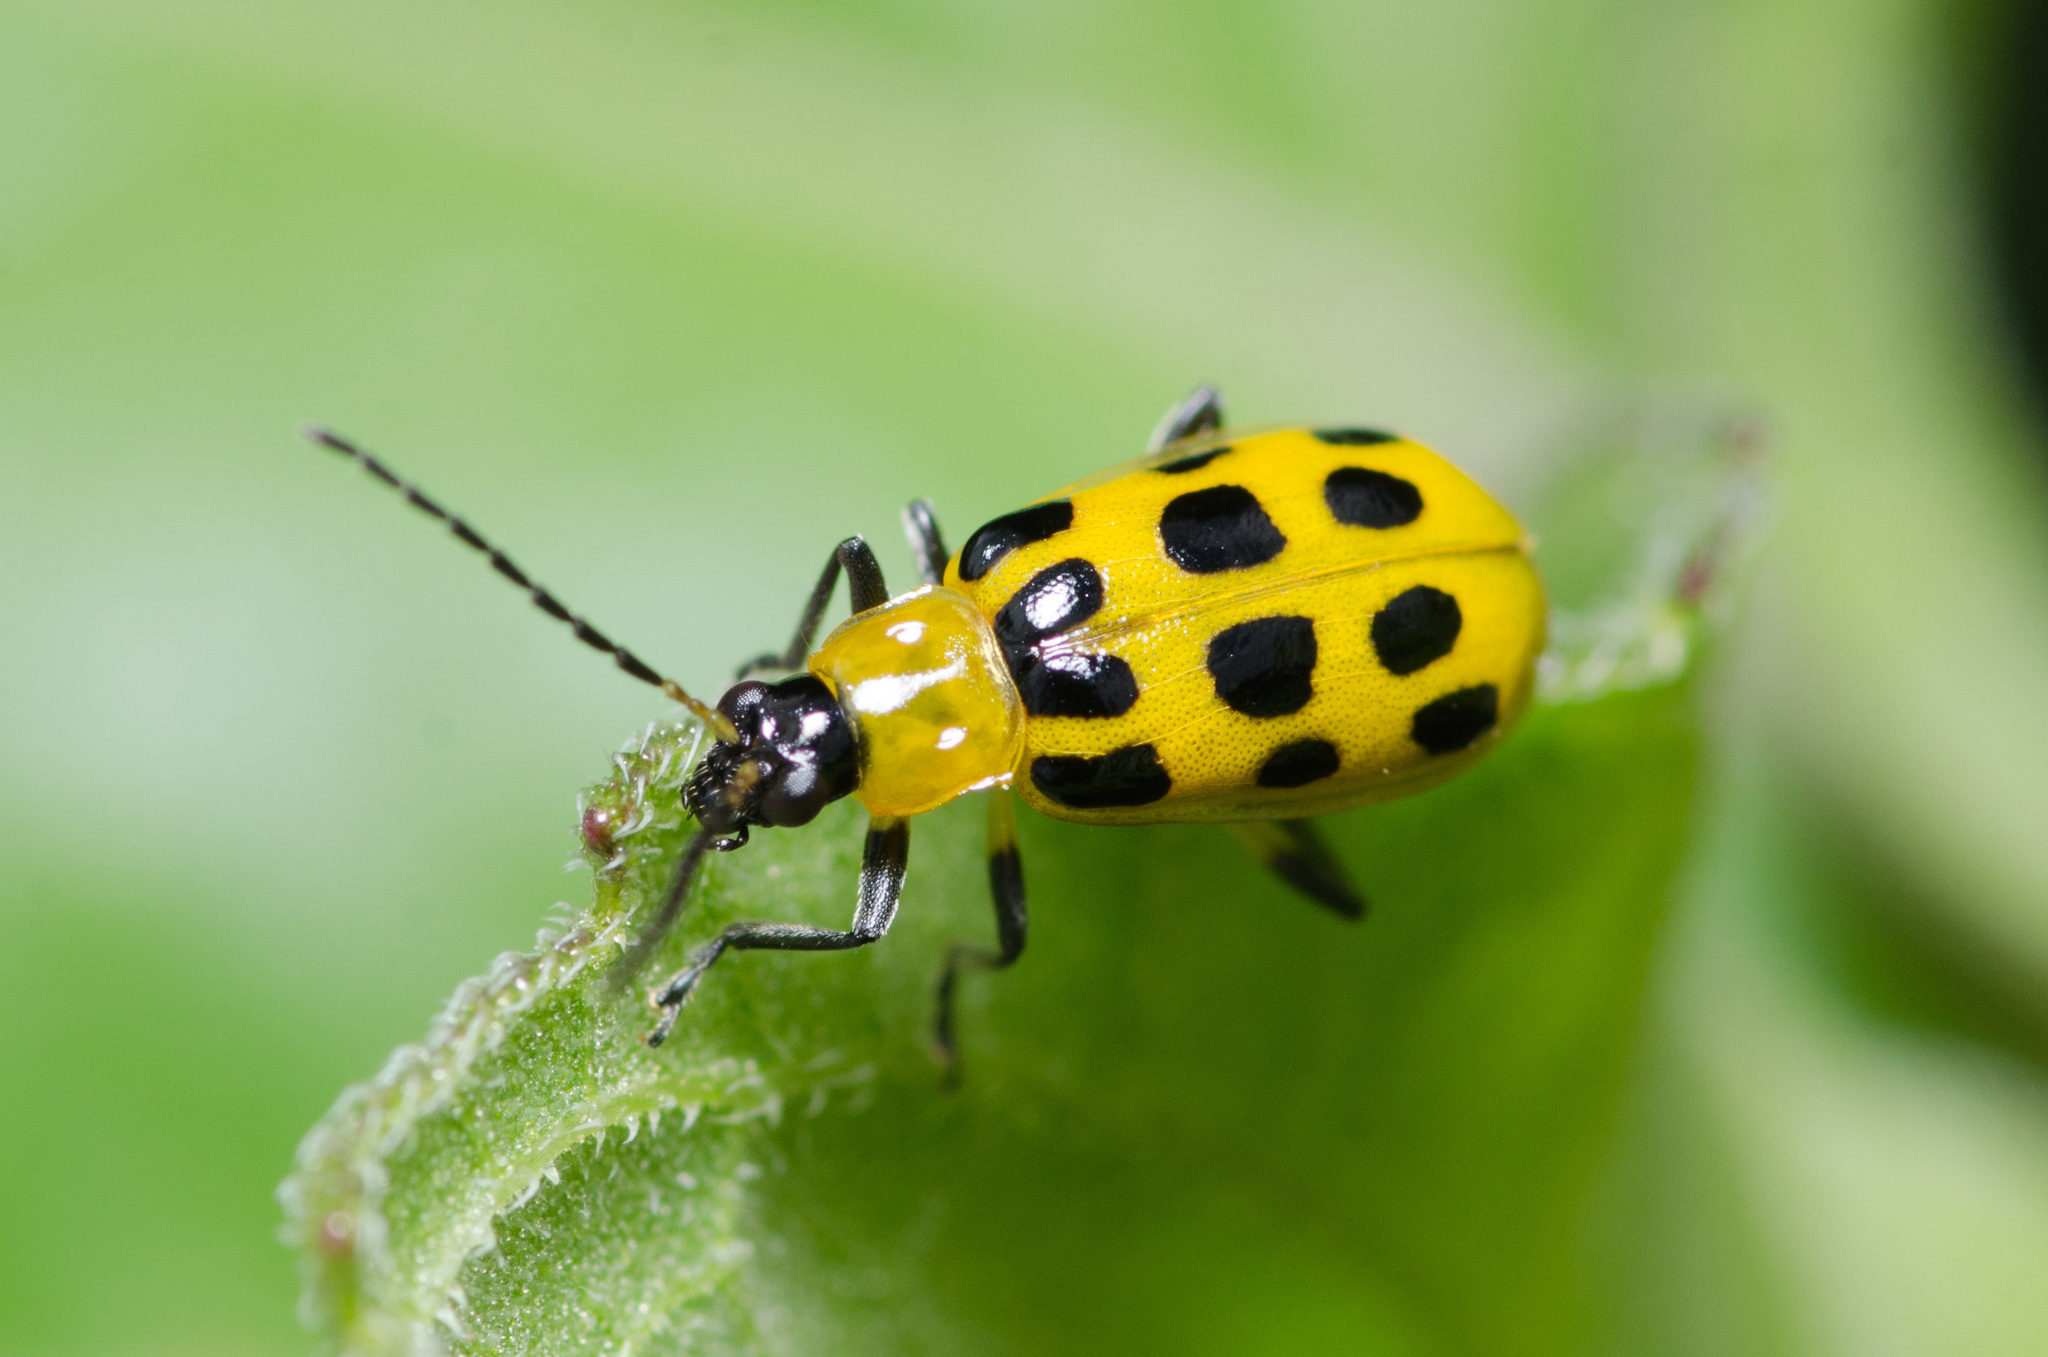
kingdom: Animalia
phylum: Arthropoda
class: Insecta
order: Coleoptera
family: Chrysomelidae
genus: Diabrotica
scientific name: Diabrotica undecimpunctata
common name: Spotted cucumber beetle
